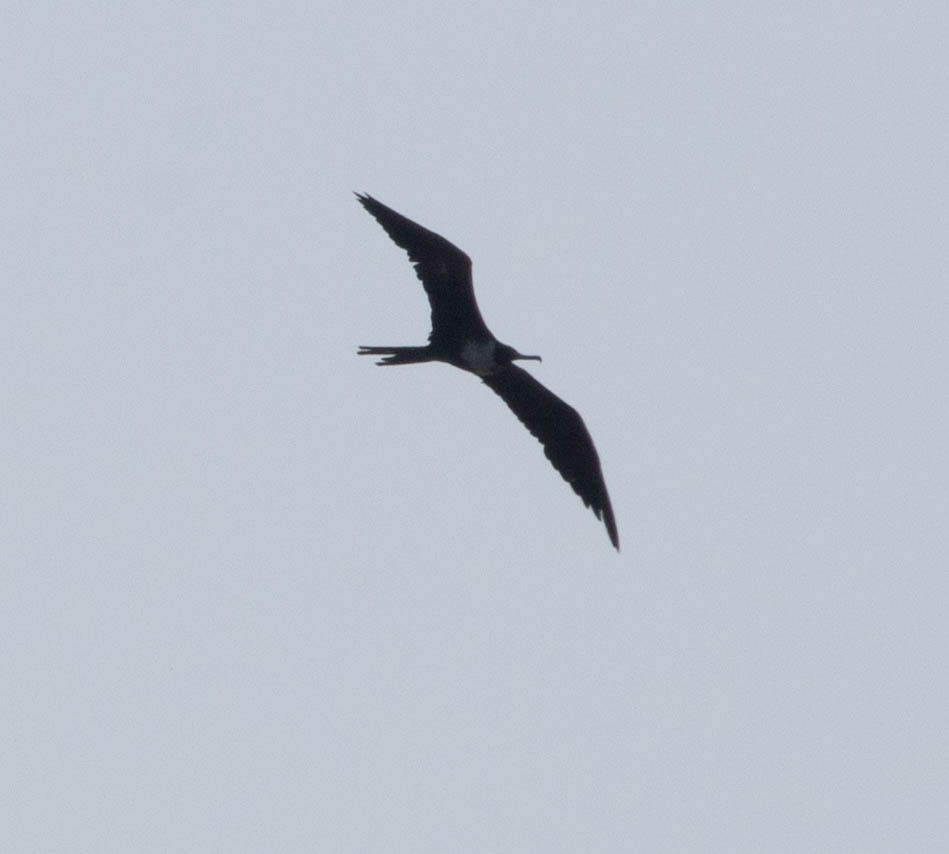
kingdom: Animalia
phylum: Chordata
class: Aves
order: Suliformes
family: Fregatidae
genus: Fregata
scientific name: Fregata magnificens
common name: Magnificent frigatebird
